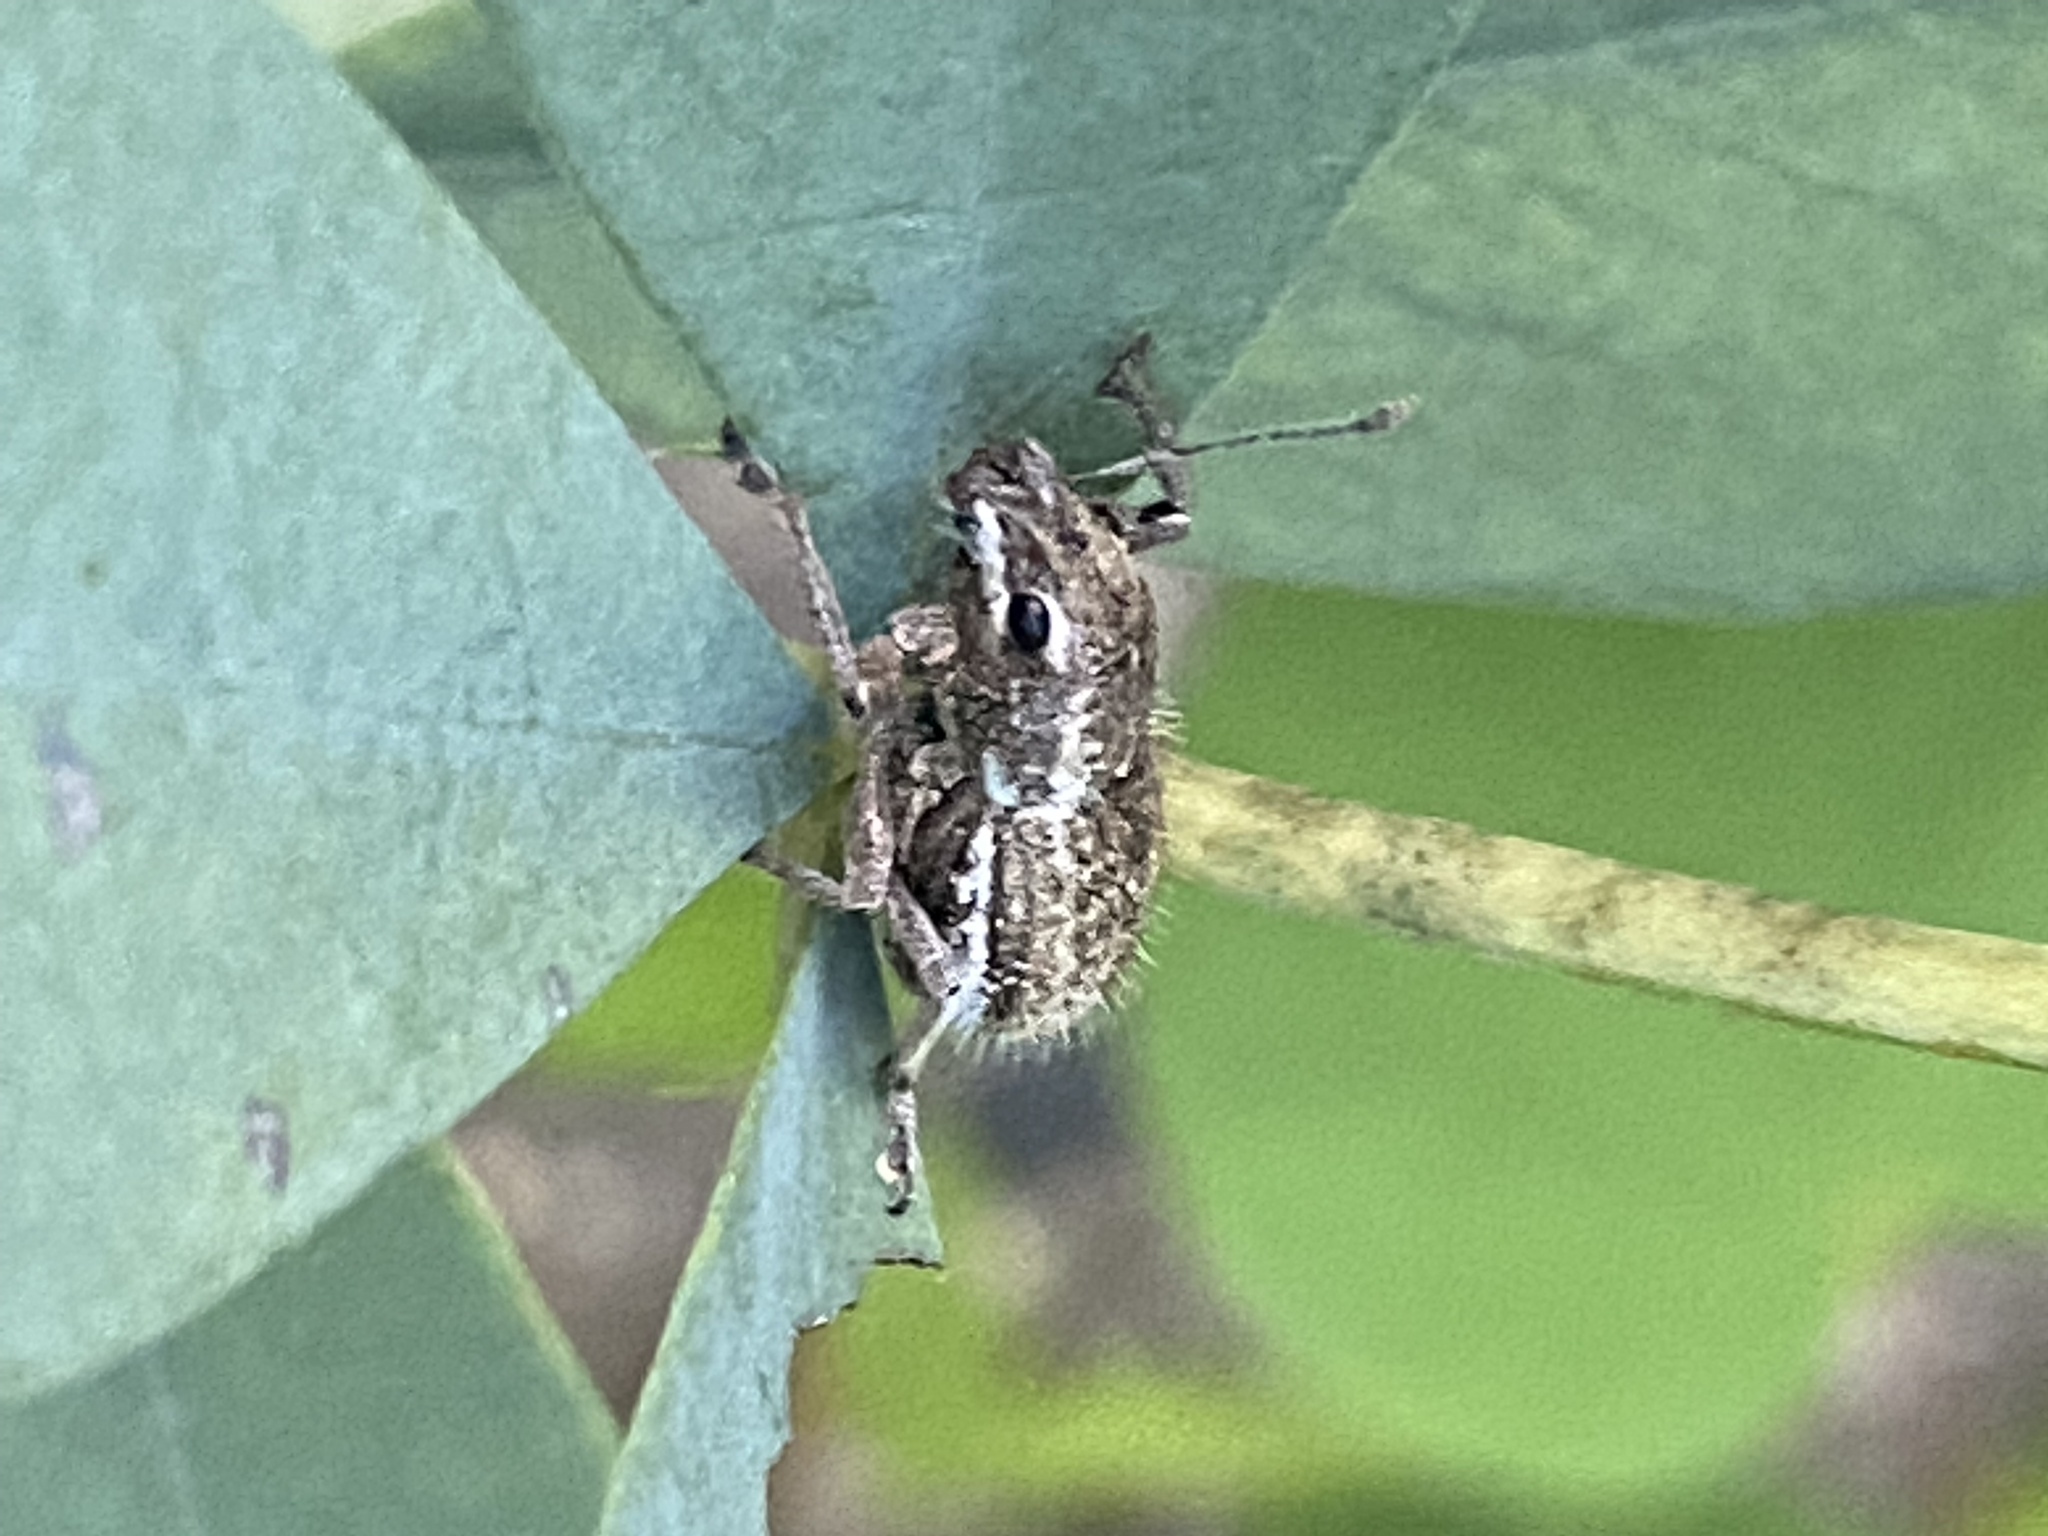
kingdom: Animalia
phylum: Arthropoda
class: Insecta
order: Coleoptera
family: Curculionidae
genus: Naupactus
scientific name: Naupactus leucoloma
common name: Whitefringed beetle
